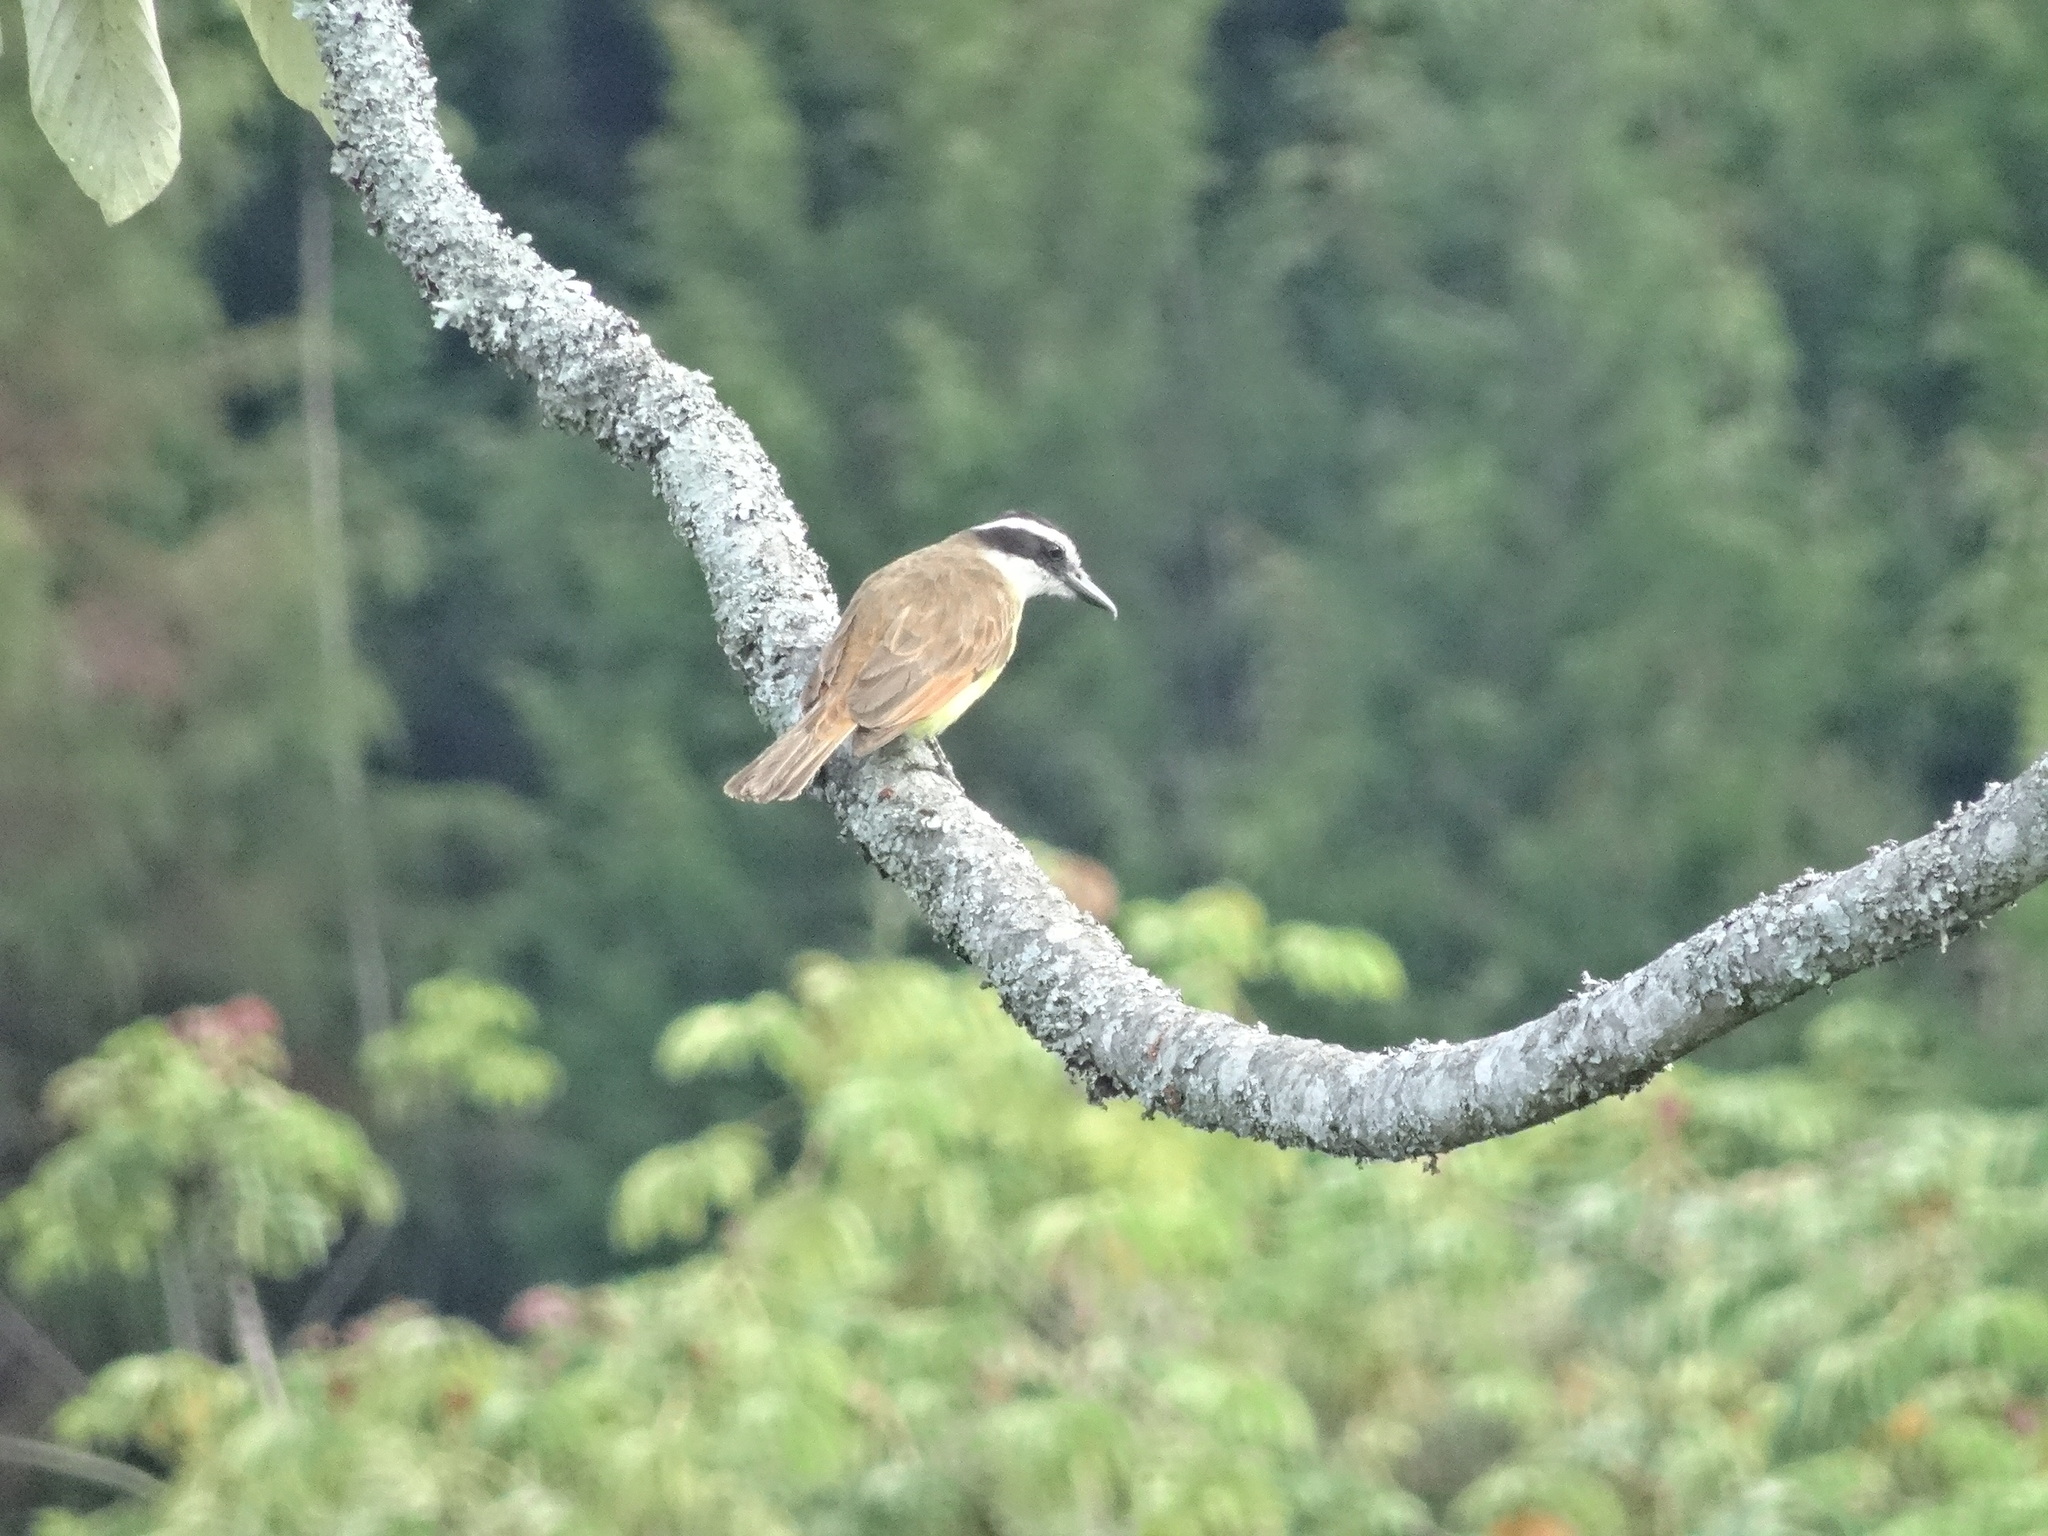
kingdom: Animalia
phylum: Chordata
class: Aves
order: Passeriformes
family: Tyrannidae
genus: Pitangus
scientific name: Pitangus sulphuratus
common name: Great kiskadee
